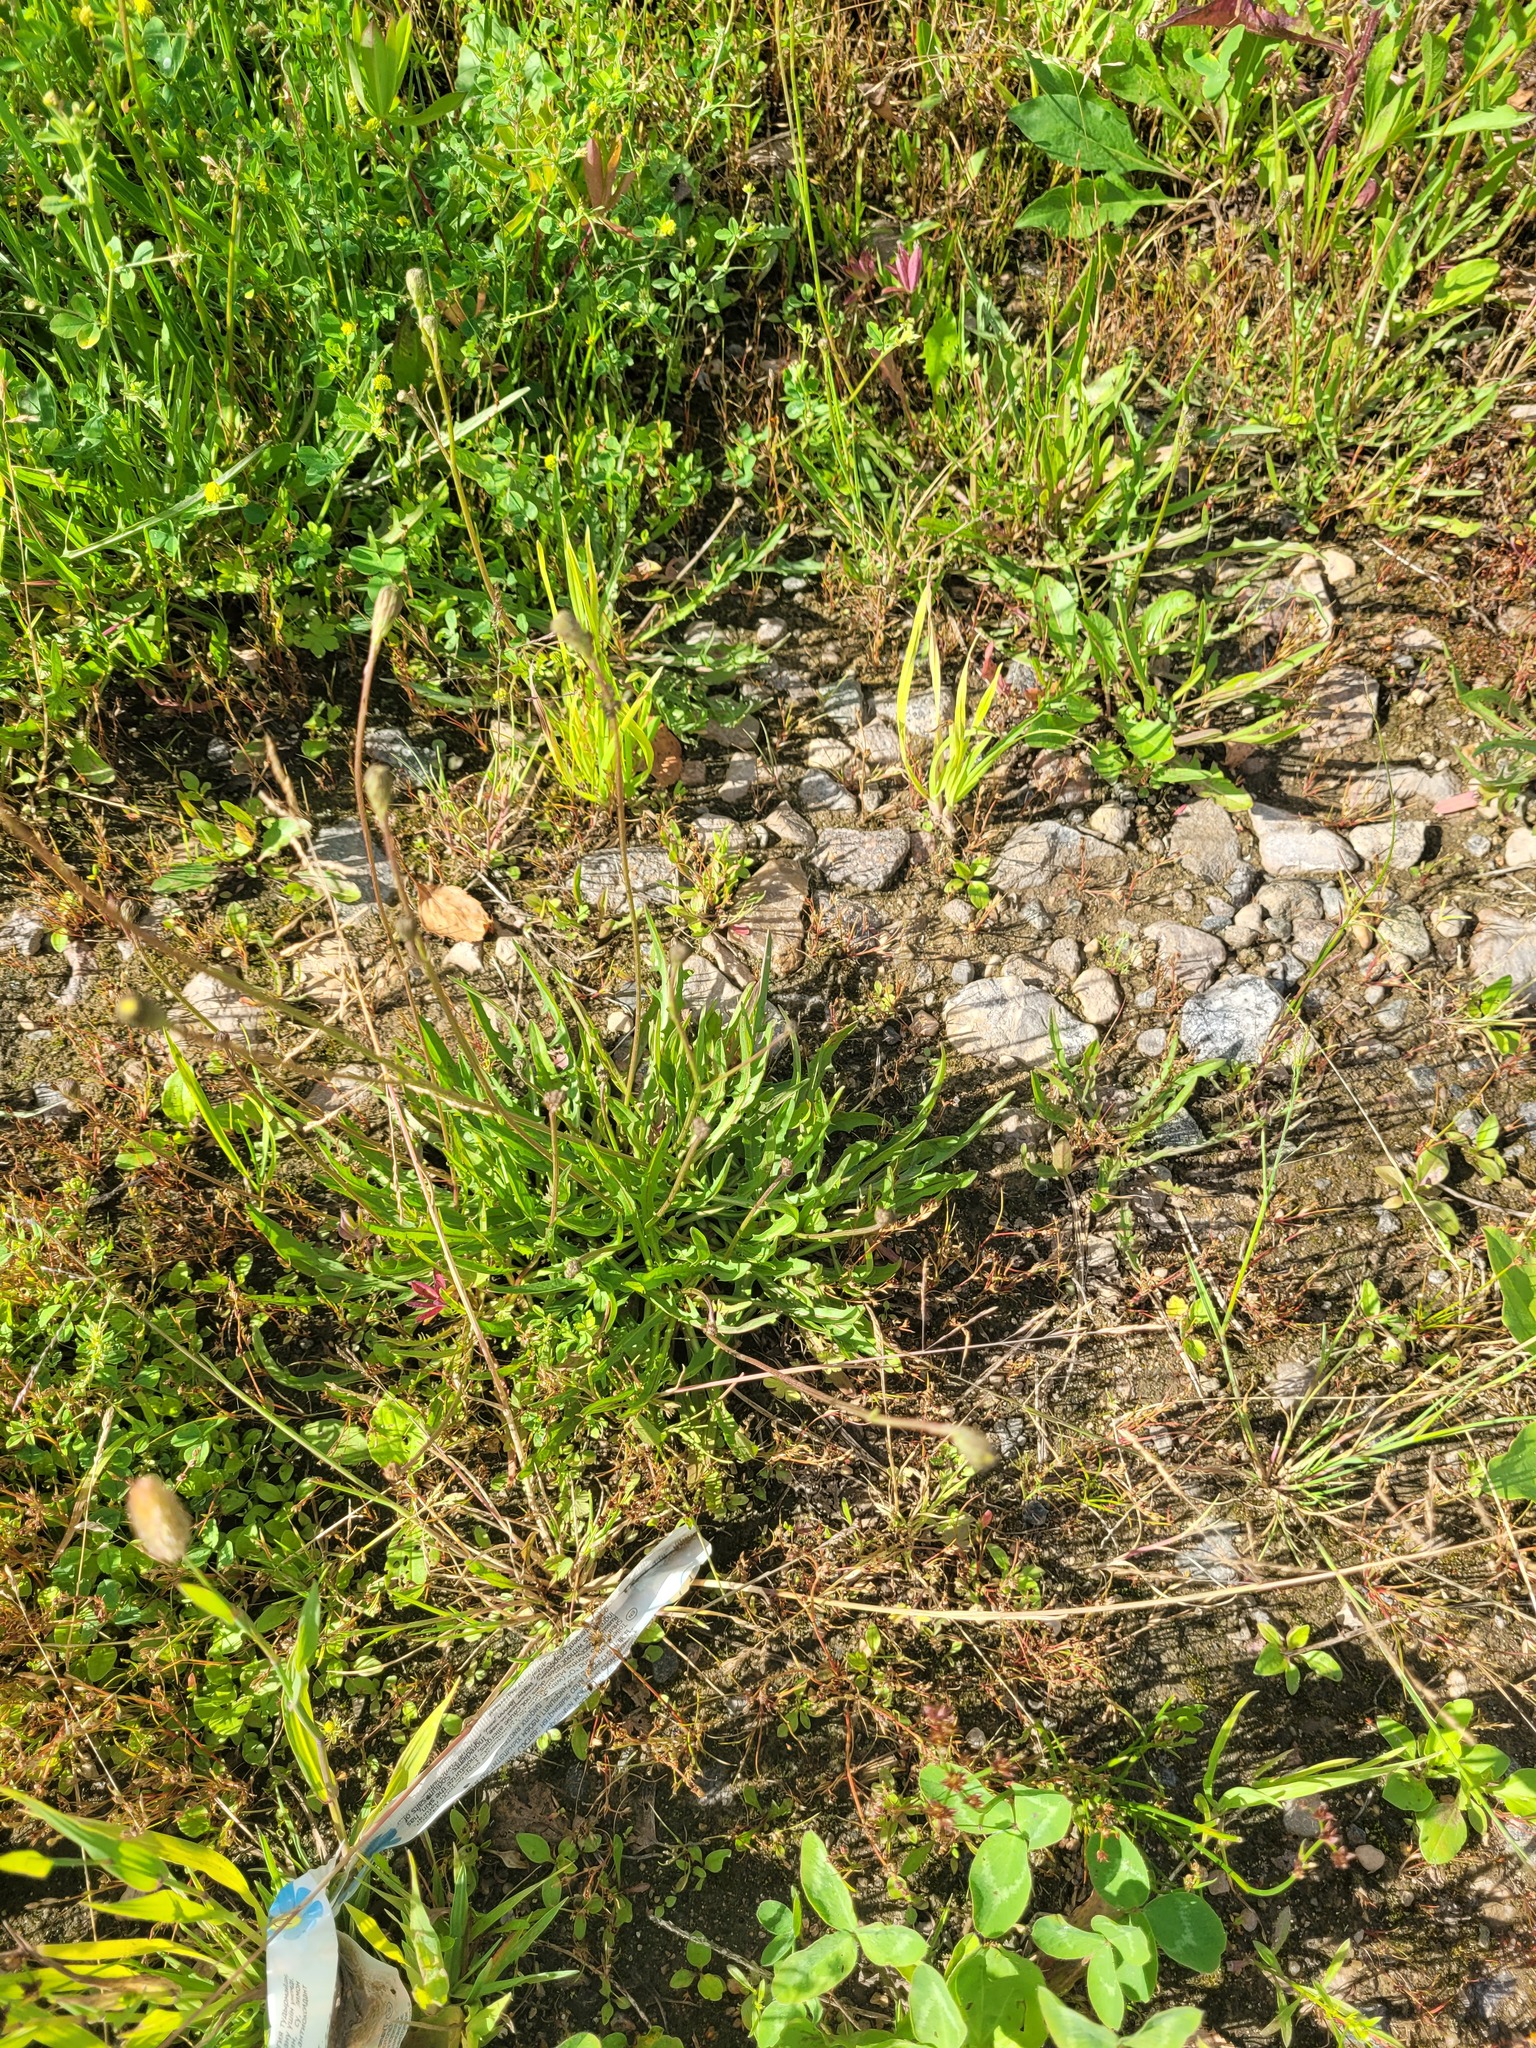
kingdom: Plantae
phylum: Tracheophyta
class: Magnoliopsida
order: Asterales
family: Asteraceae
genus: Scorzoneroides
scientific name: Scorzoneroides autumnalis
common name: Autumn hawkbit
